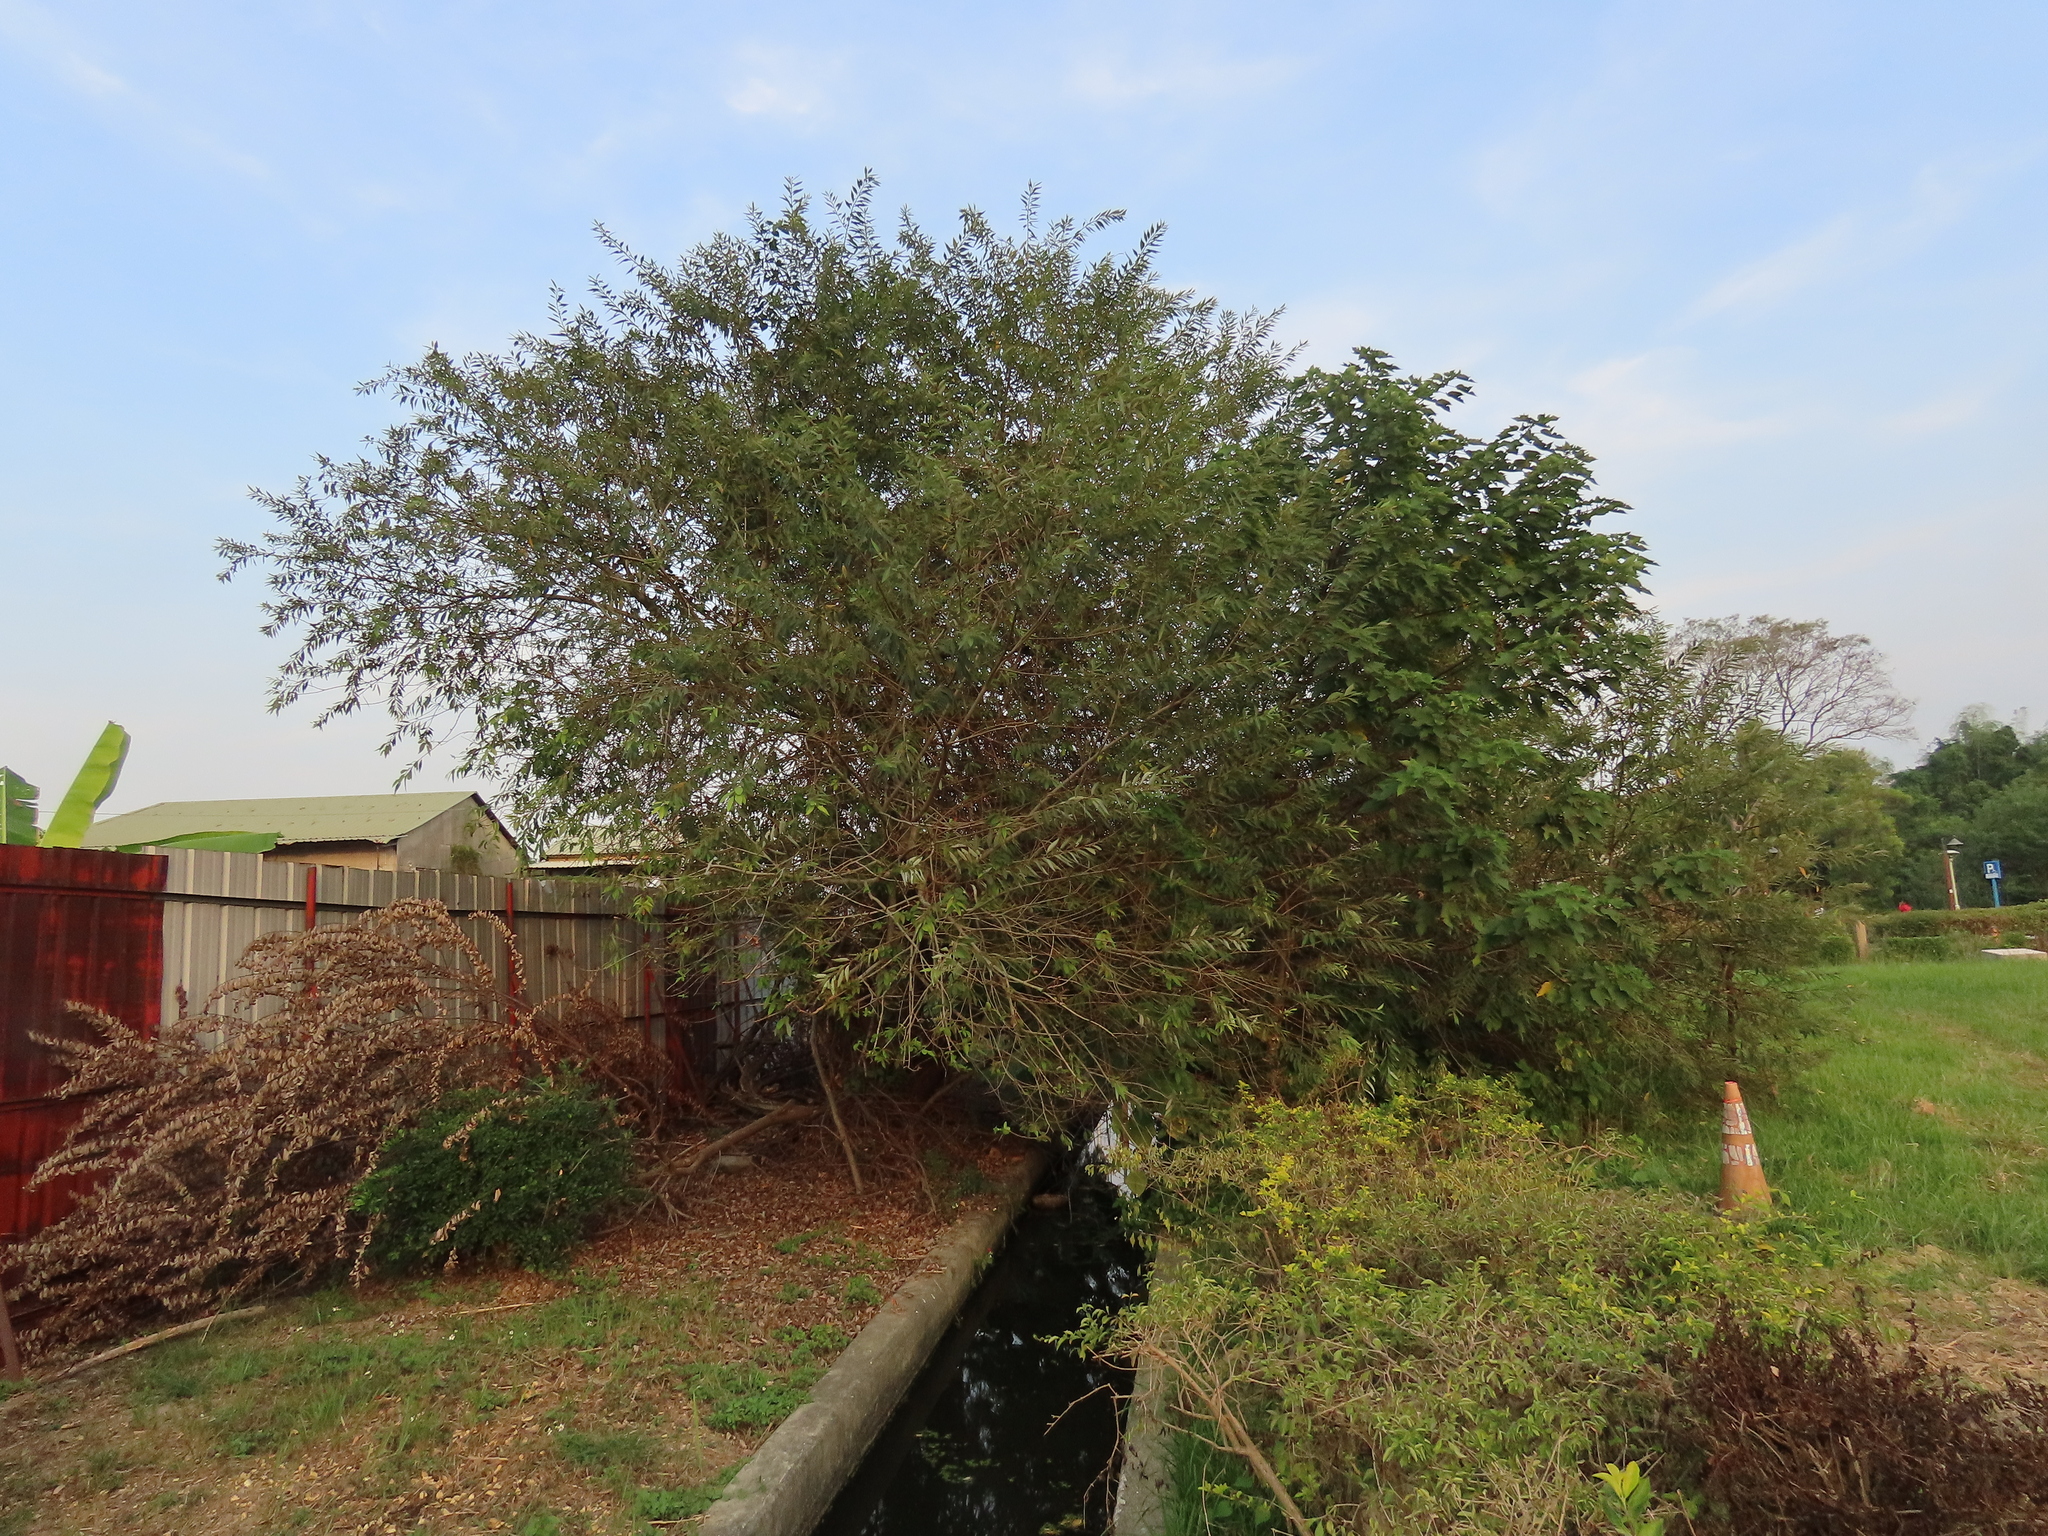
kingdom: Plantae
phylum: Tracheophyta
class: Magnoliopsida
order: Malpighiales
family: Salicaceae
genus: Salix
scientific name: Salix mesnyi
